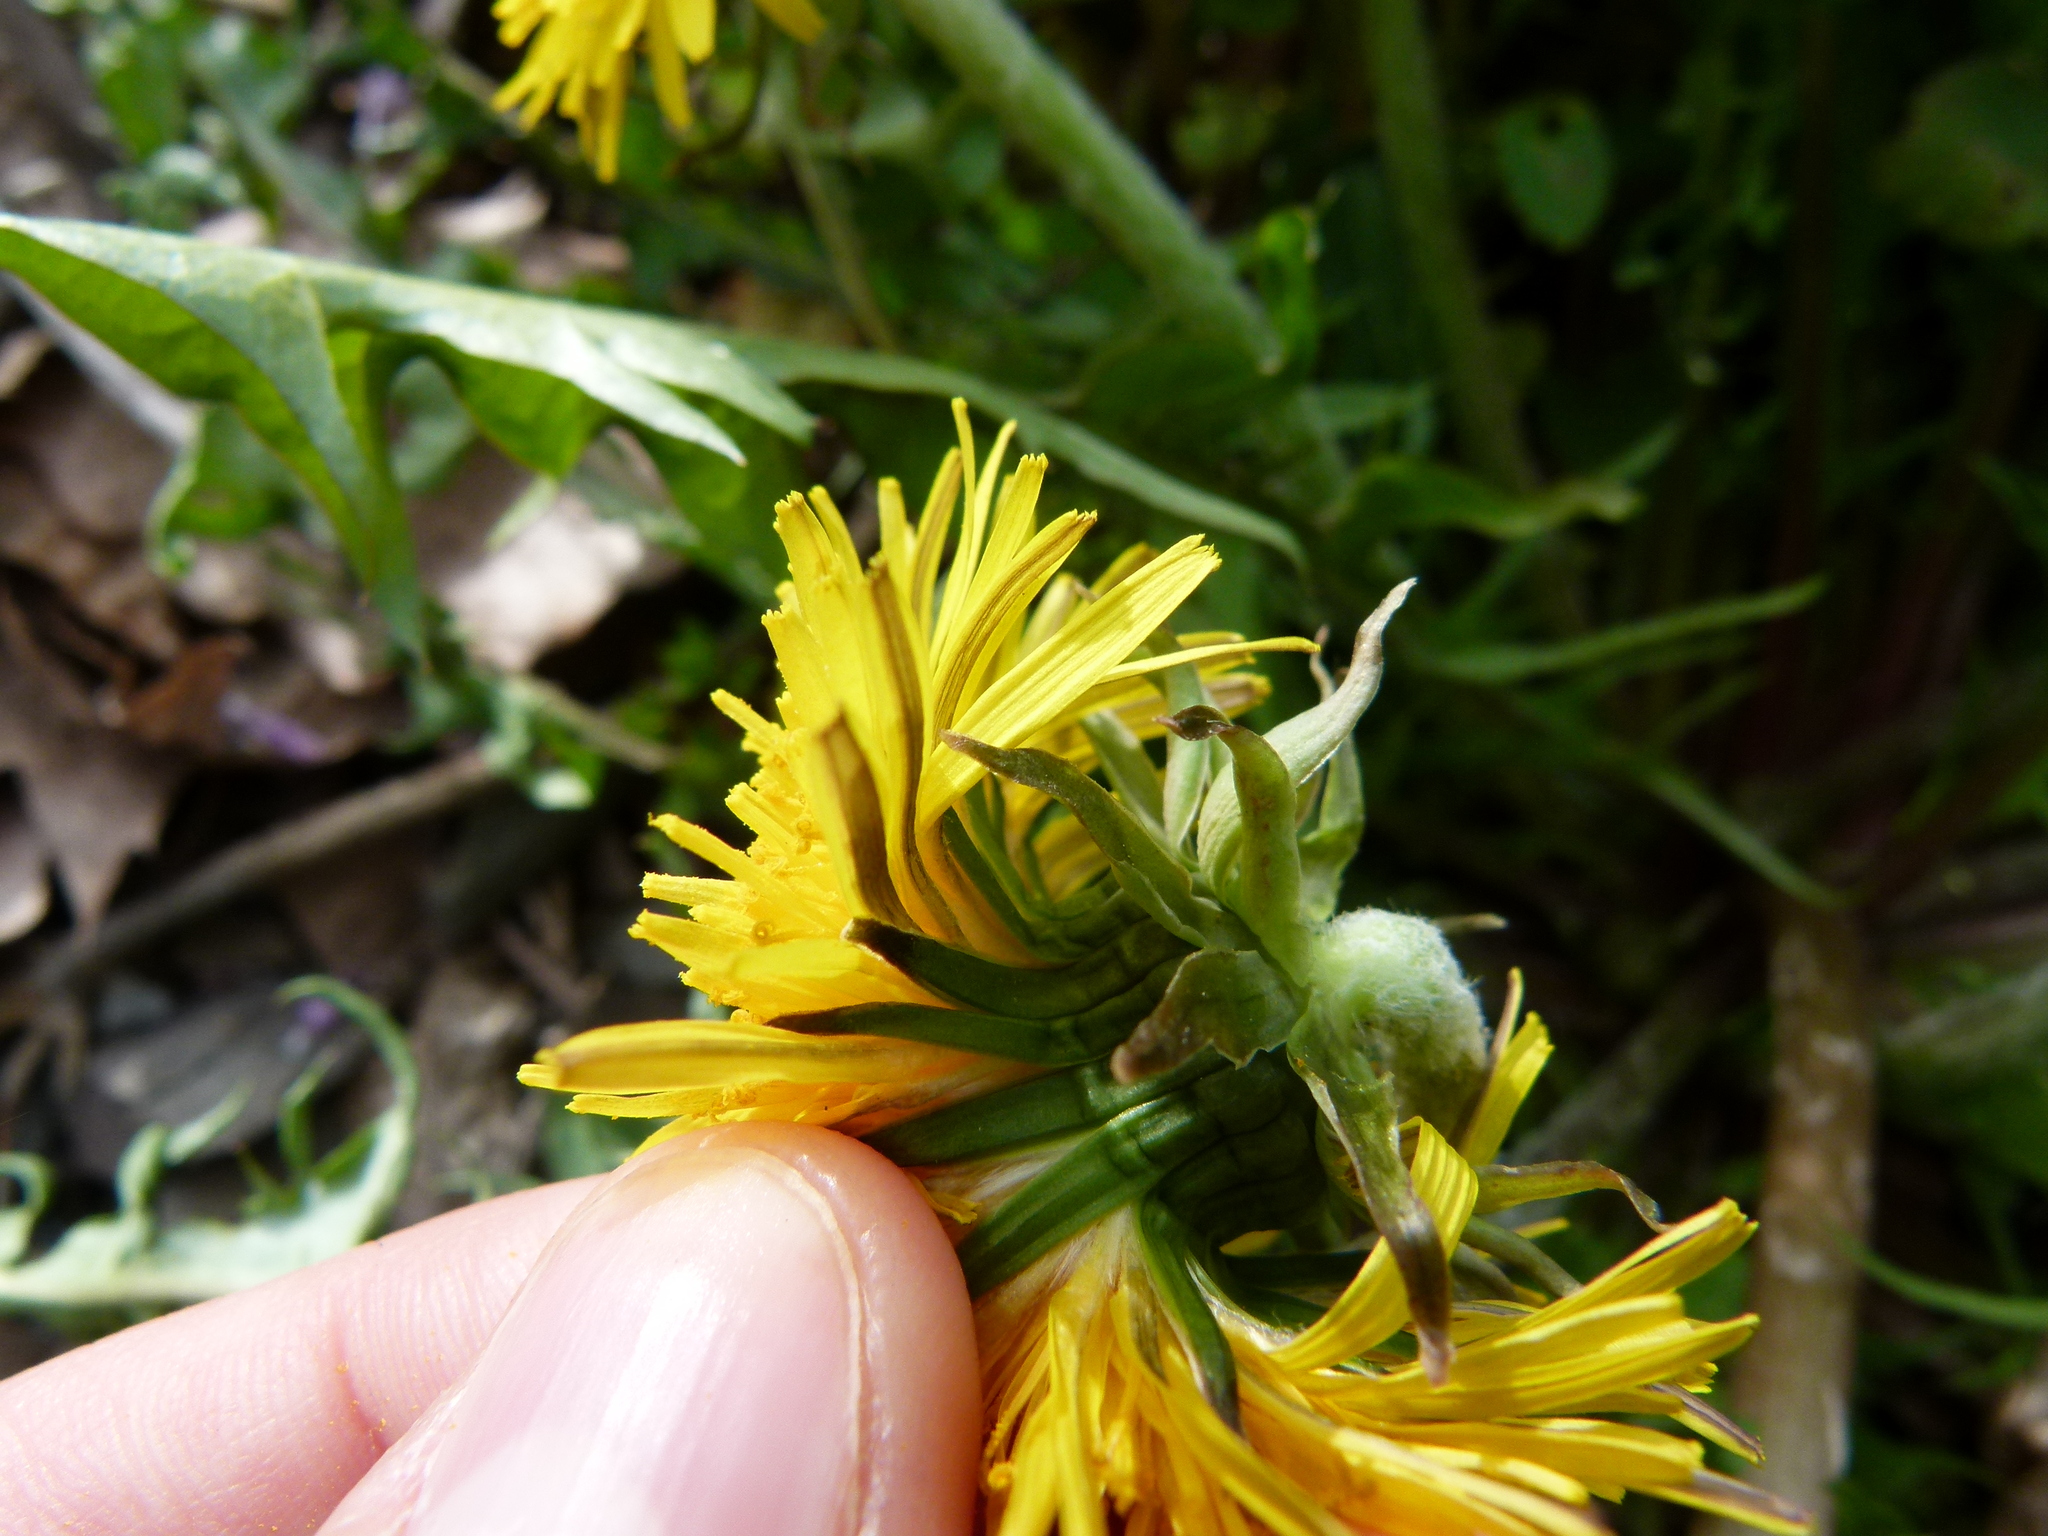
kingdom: Plantae
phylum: Tracheophyta
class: Magnoliopsida
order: Asterales
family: Asteraceae
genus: Taraxacum
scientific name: Taraxacum officinale
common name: Common dandelion
